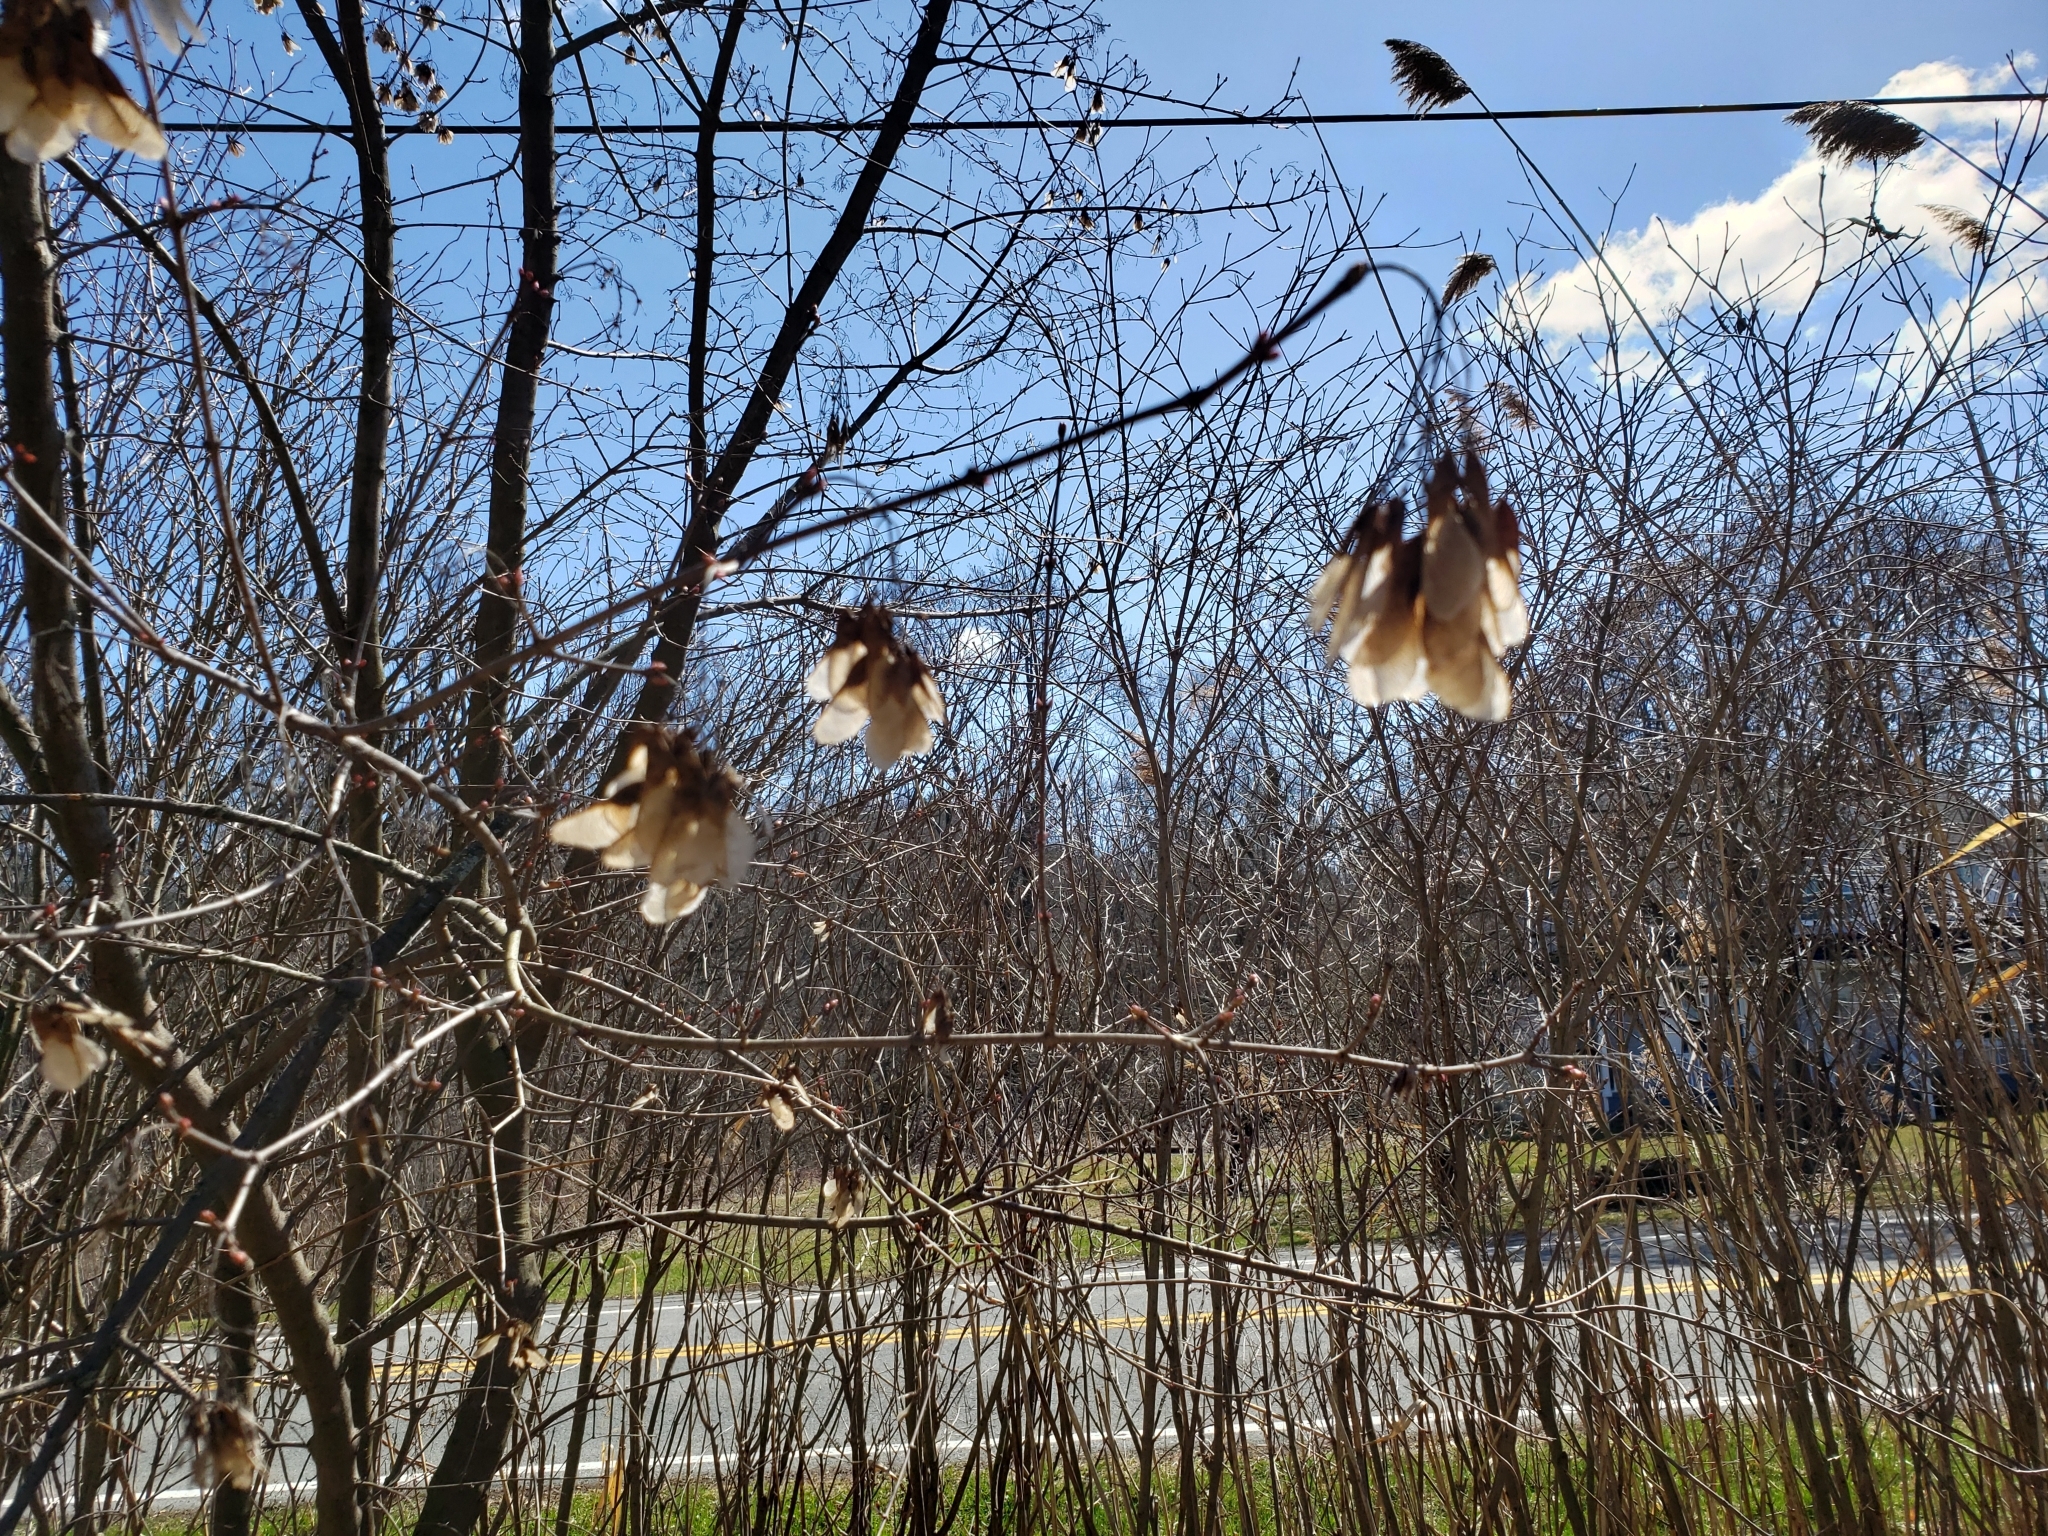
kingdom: Plantae
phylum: Tracheophyta
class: Magnoliopsida
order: Sapindales
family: Sapindaceae
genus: Acer
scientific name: Acer tataricum
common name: Tartar maple
